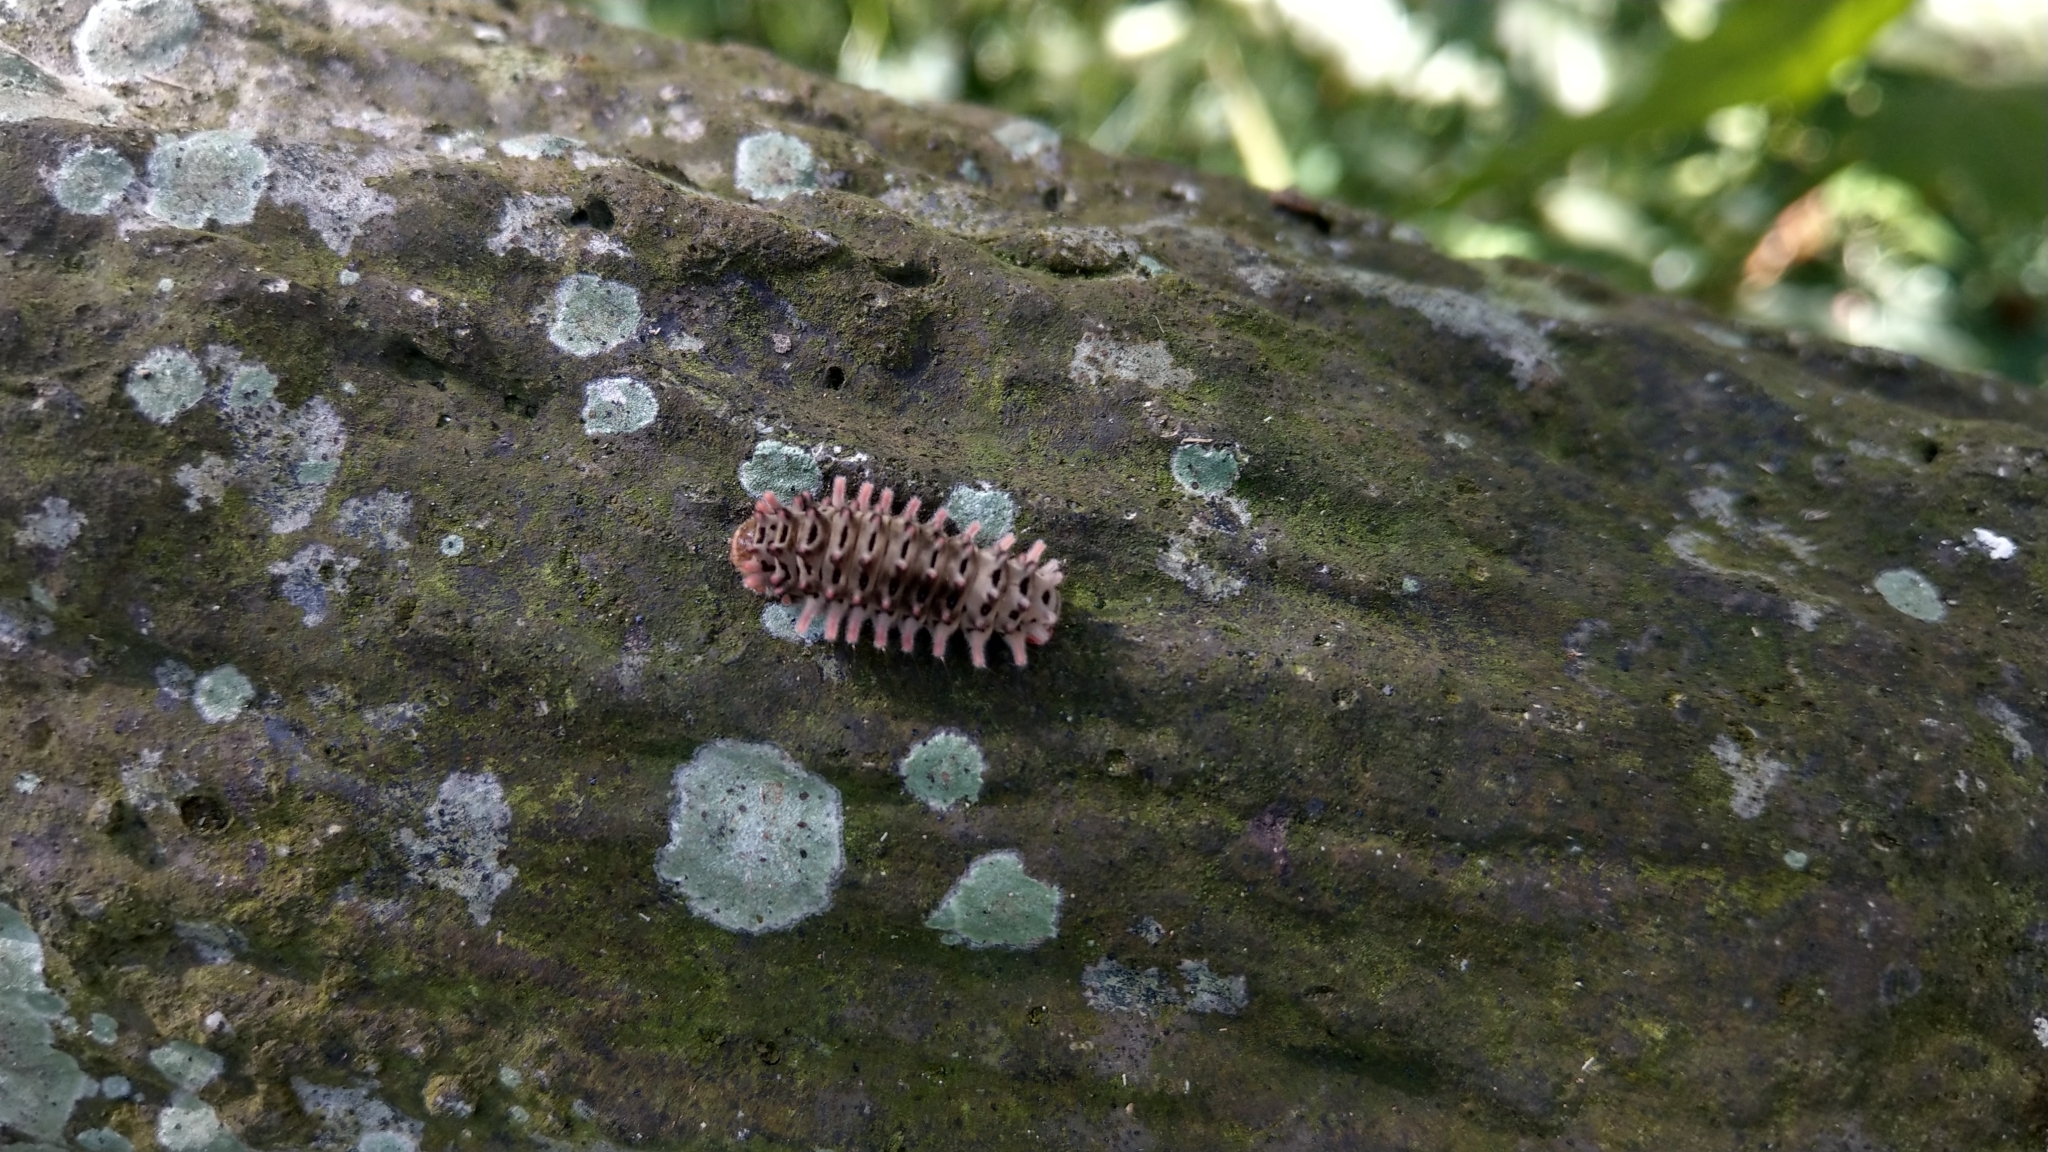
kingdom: Animalia
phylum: Arthropoda
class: Insecta
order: Lepidoptera
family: Zygaenidae
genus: Histia
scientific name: Histia flabellicornis
